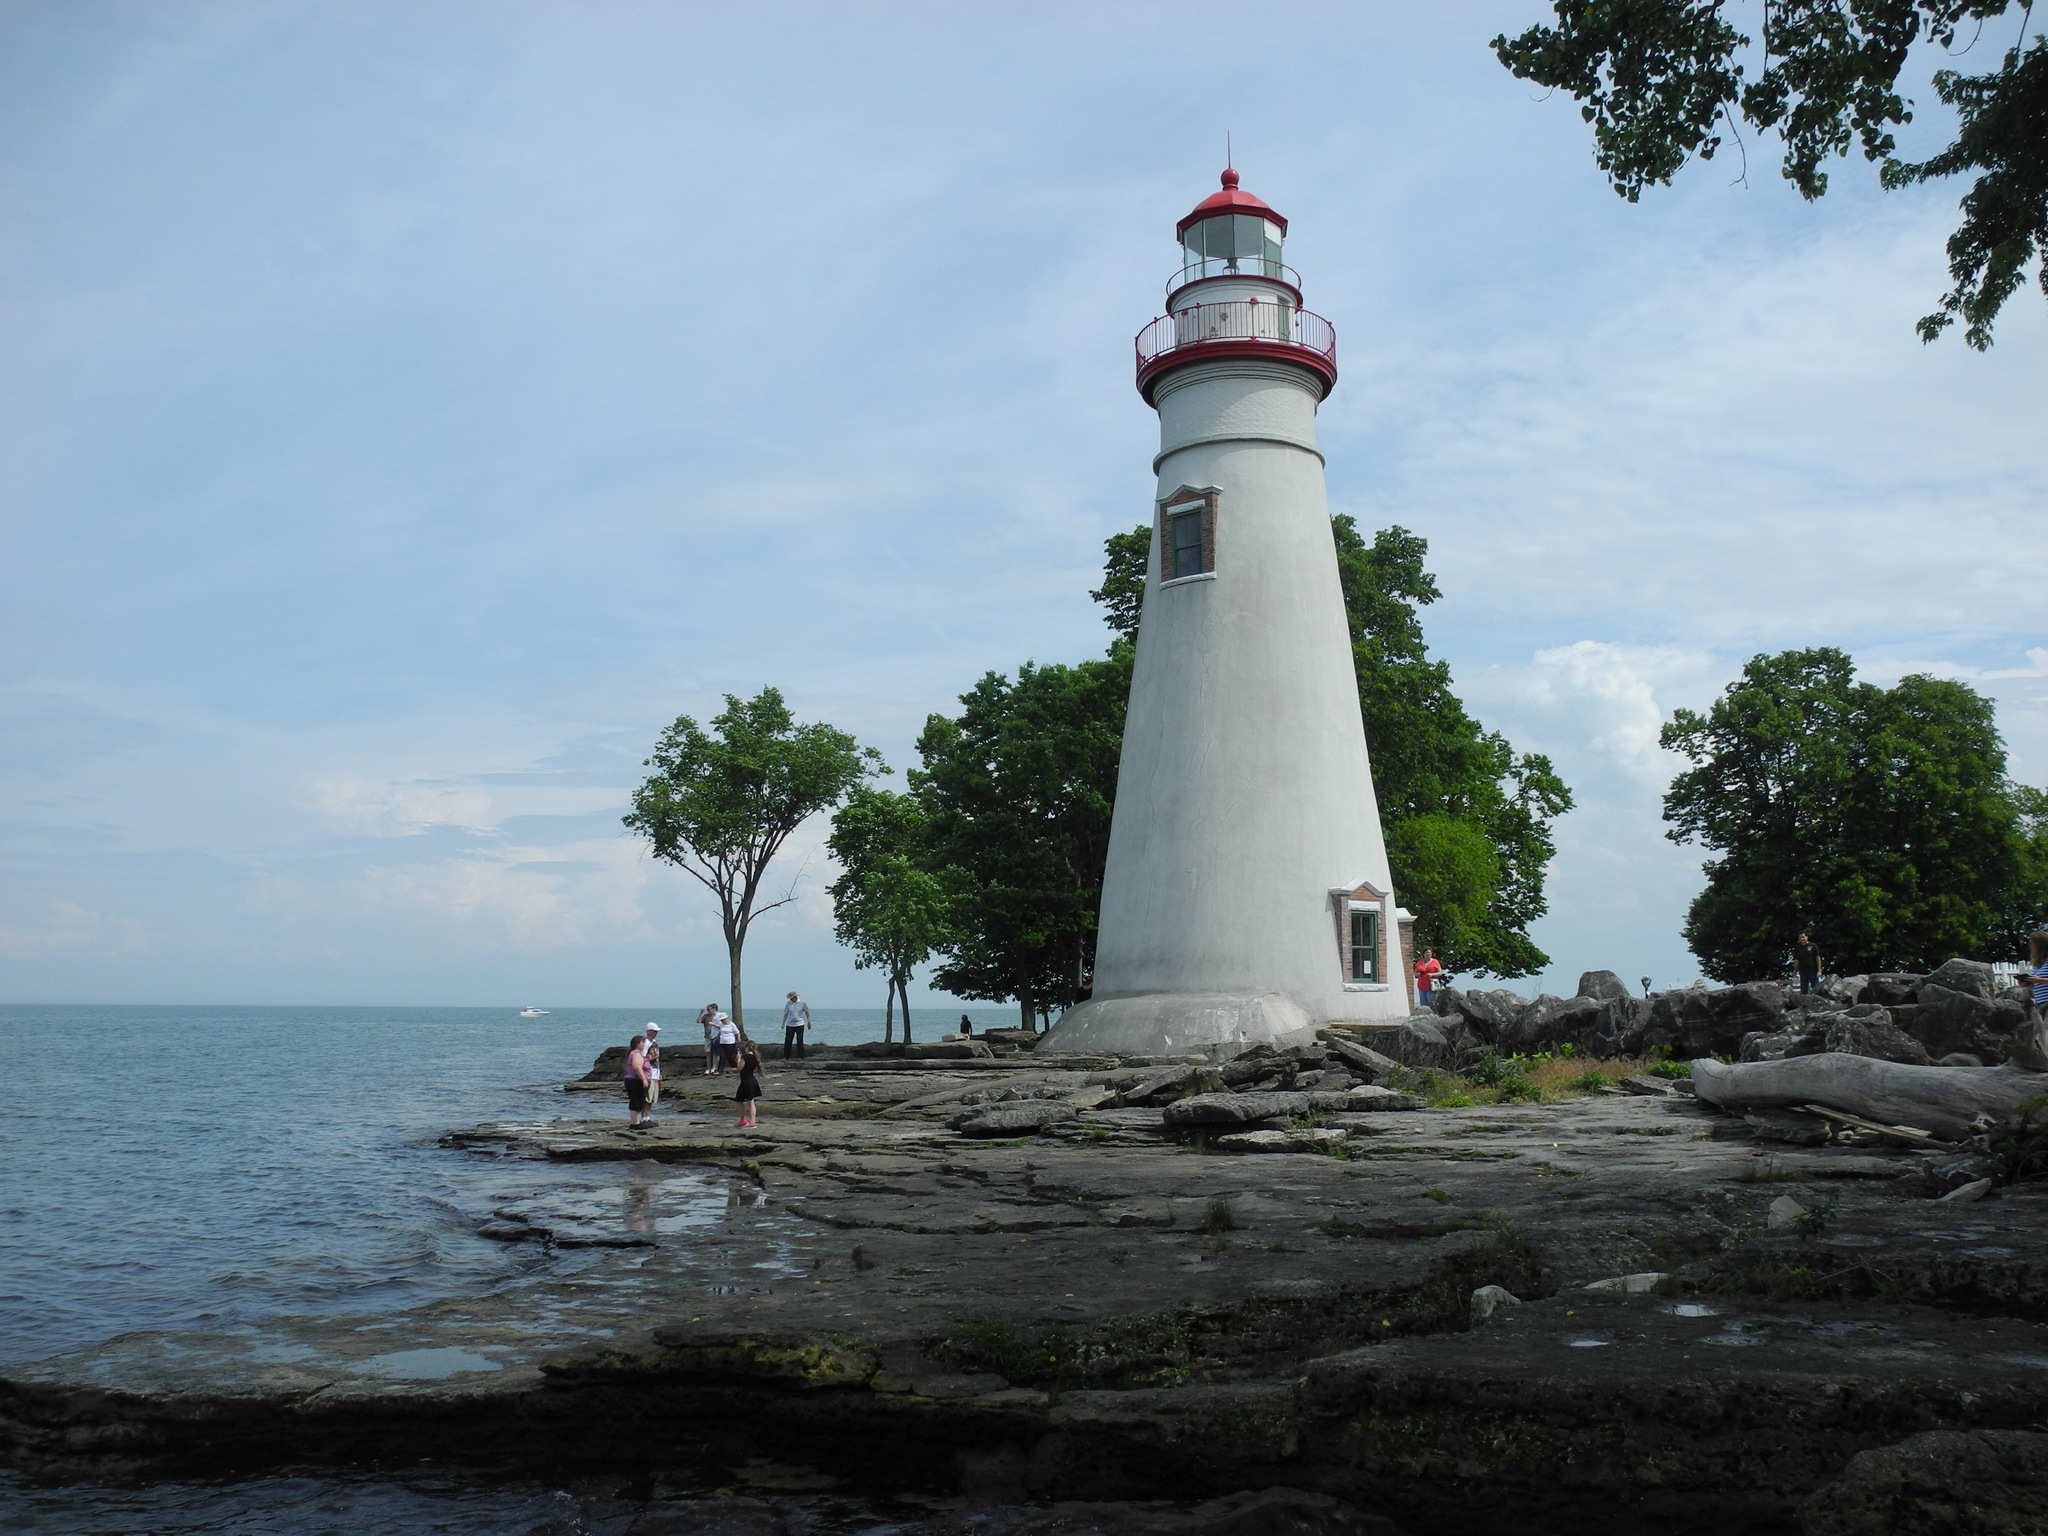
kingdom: Plantae
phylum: Tracheophyta
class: Magnoliopsida
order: Asterales
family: Asteraceae
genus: Erigeron
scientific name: Erigeron philadelphicus
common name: Robin's-plantain
